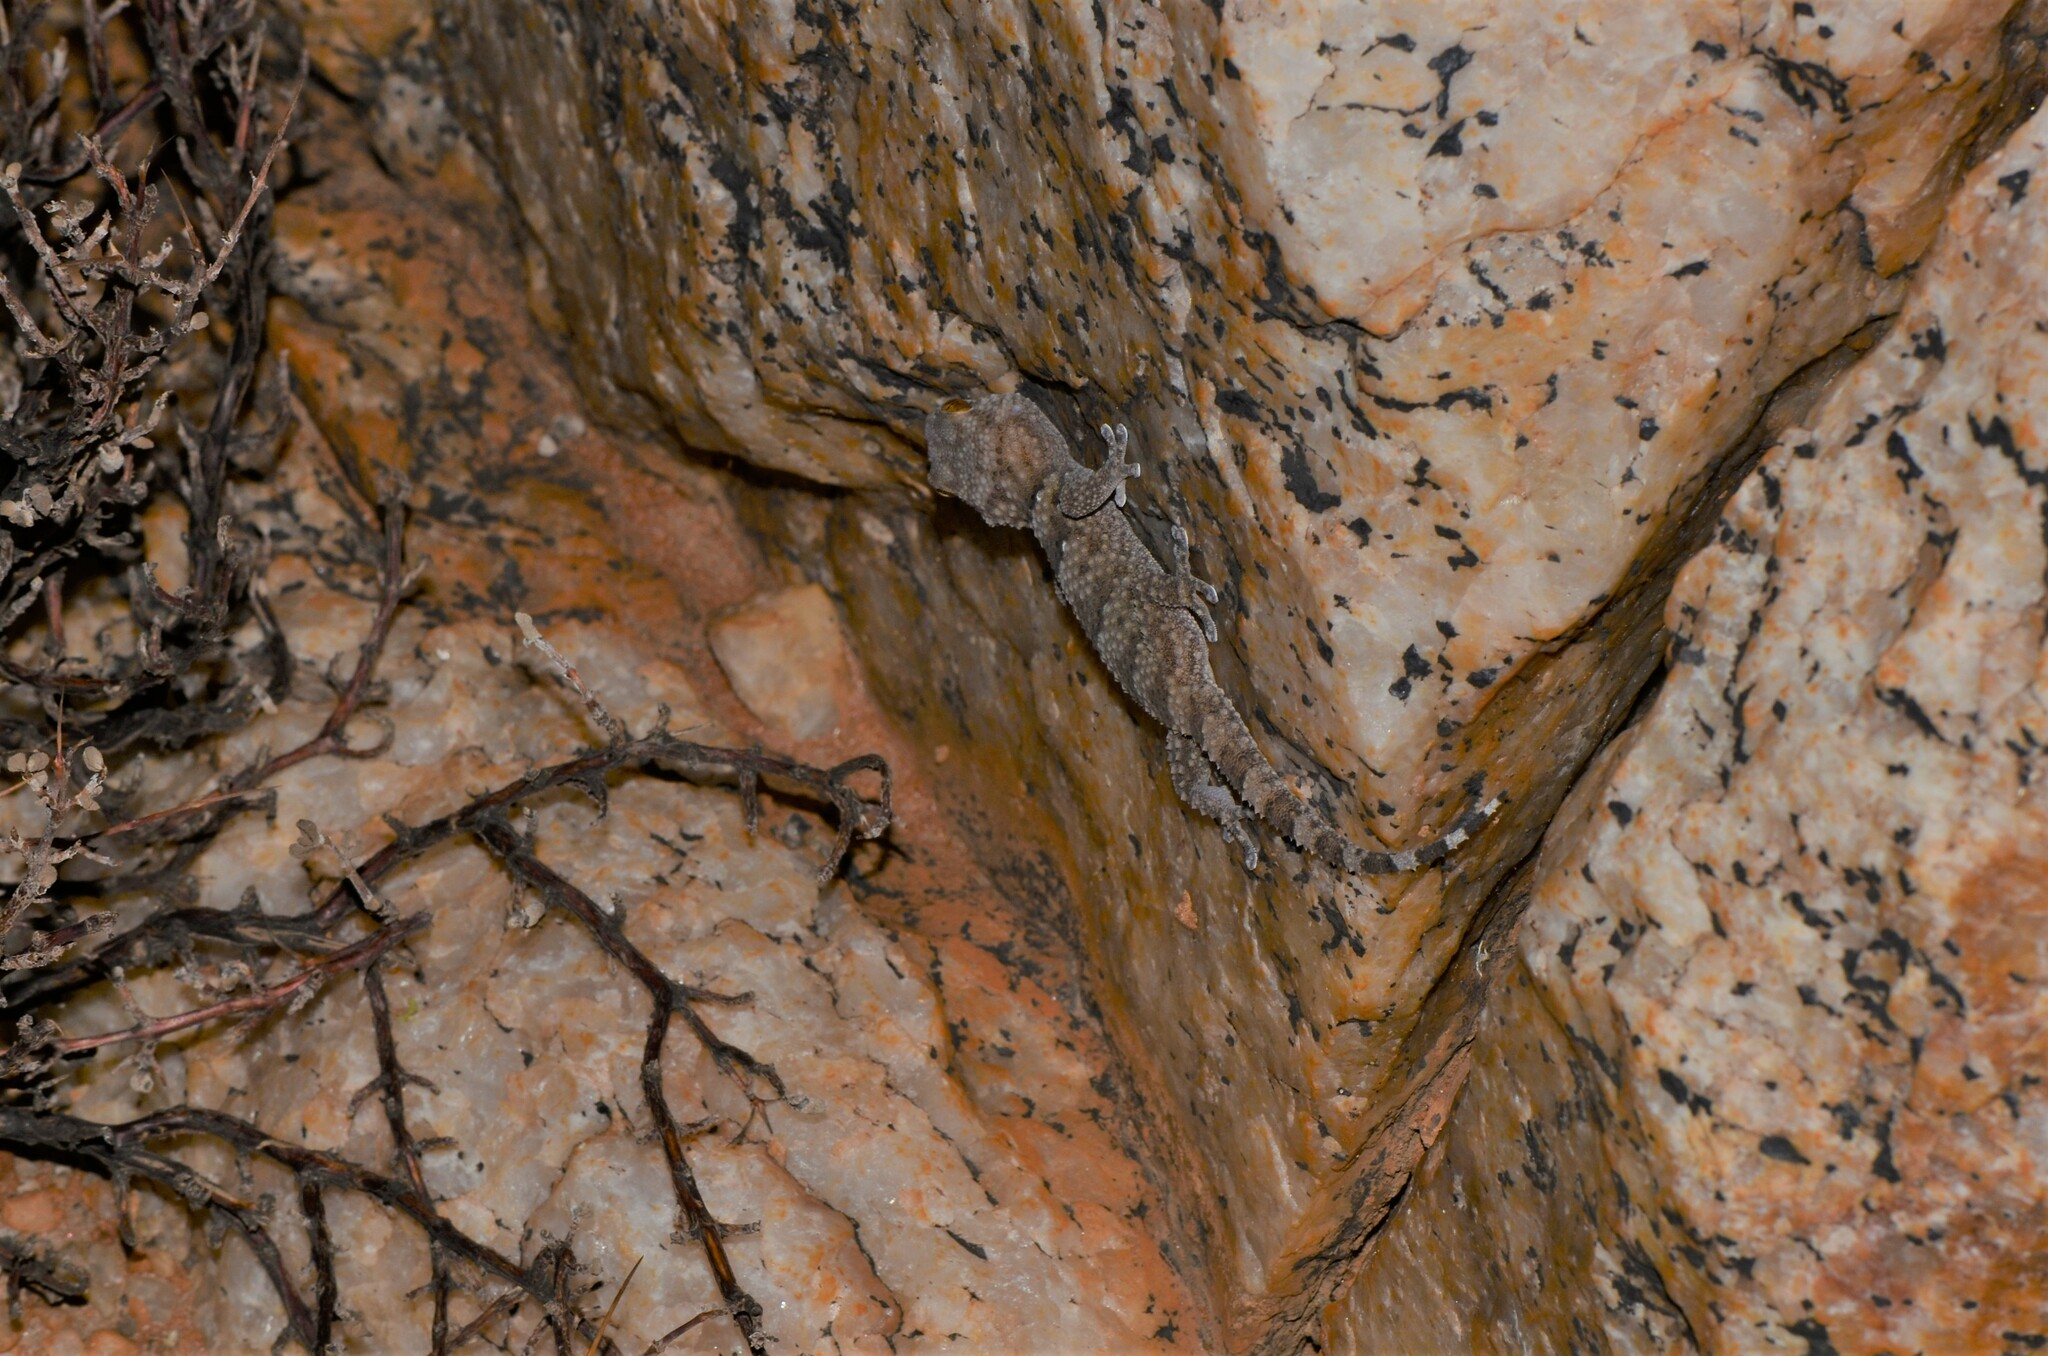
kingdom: Animalia
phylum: Chordata
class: Squamata
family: Gekkonidae
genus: Chondrodactylus
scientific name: Chondrodactylus laevigatus
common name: Fischer's thick-toed gecko
